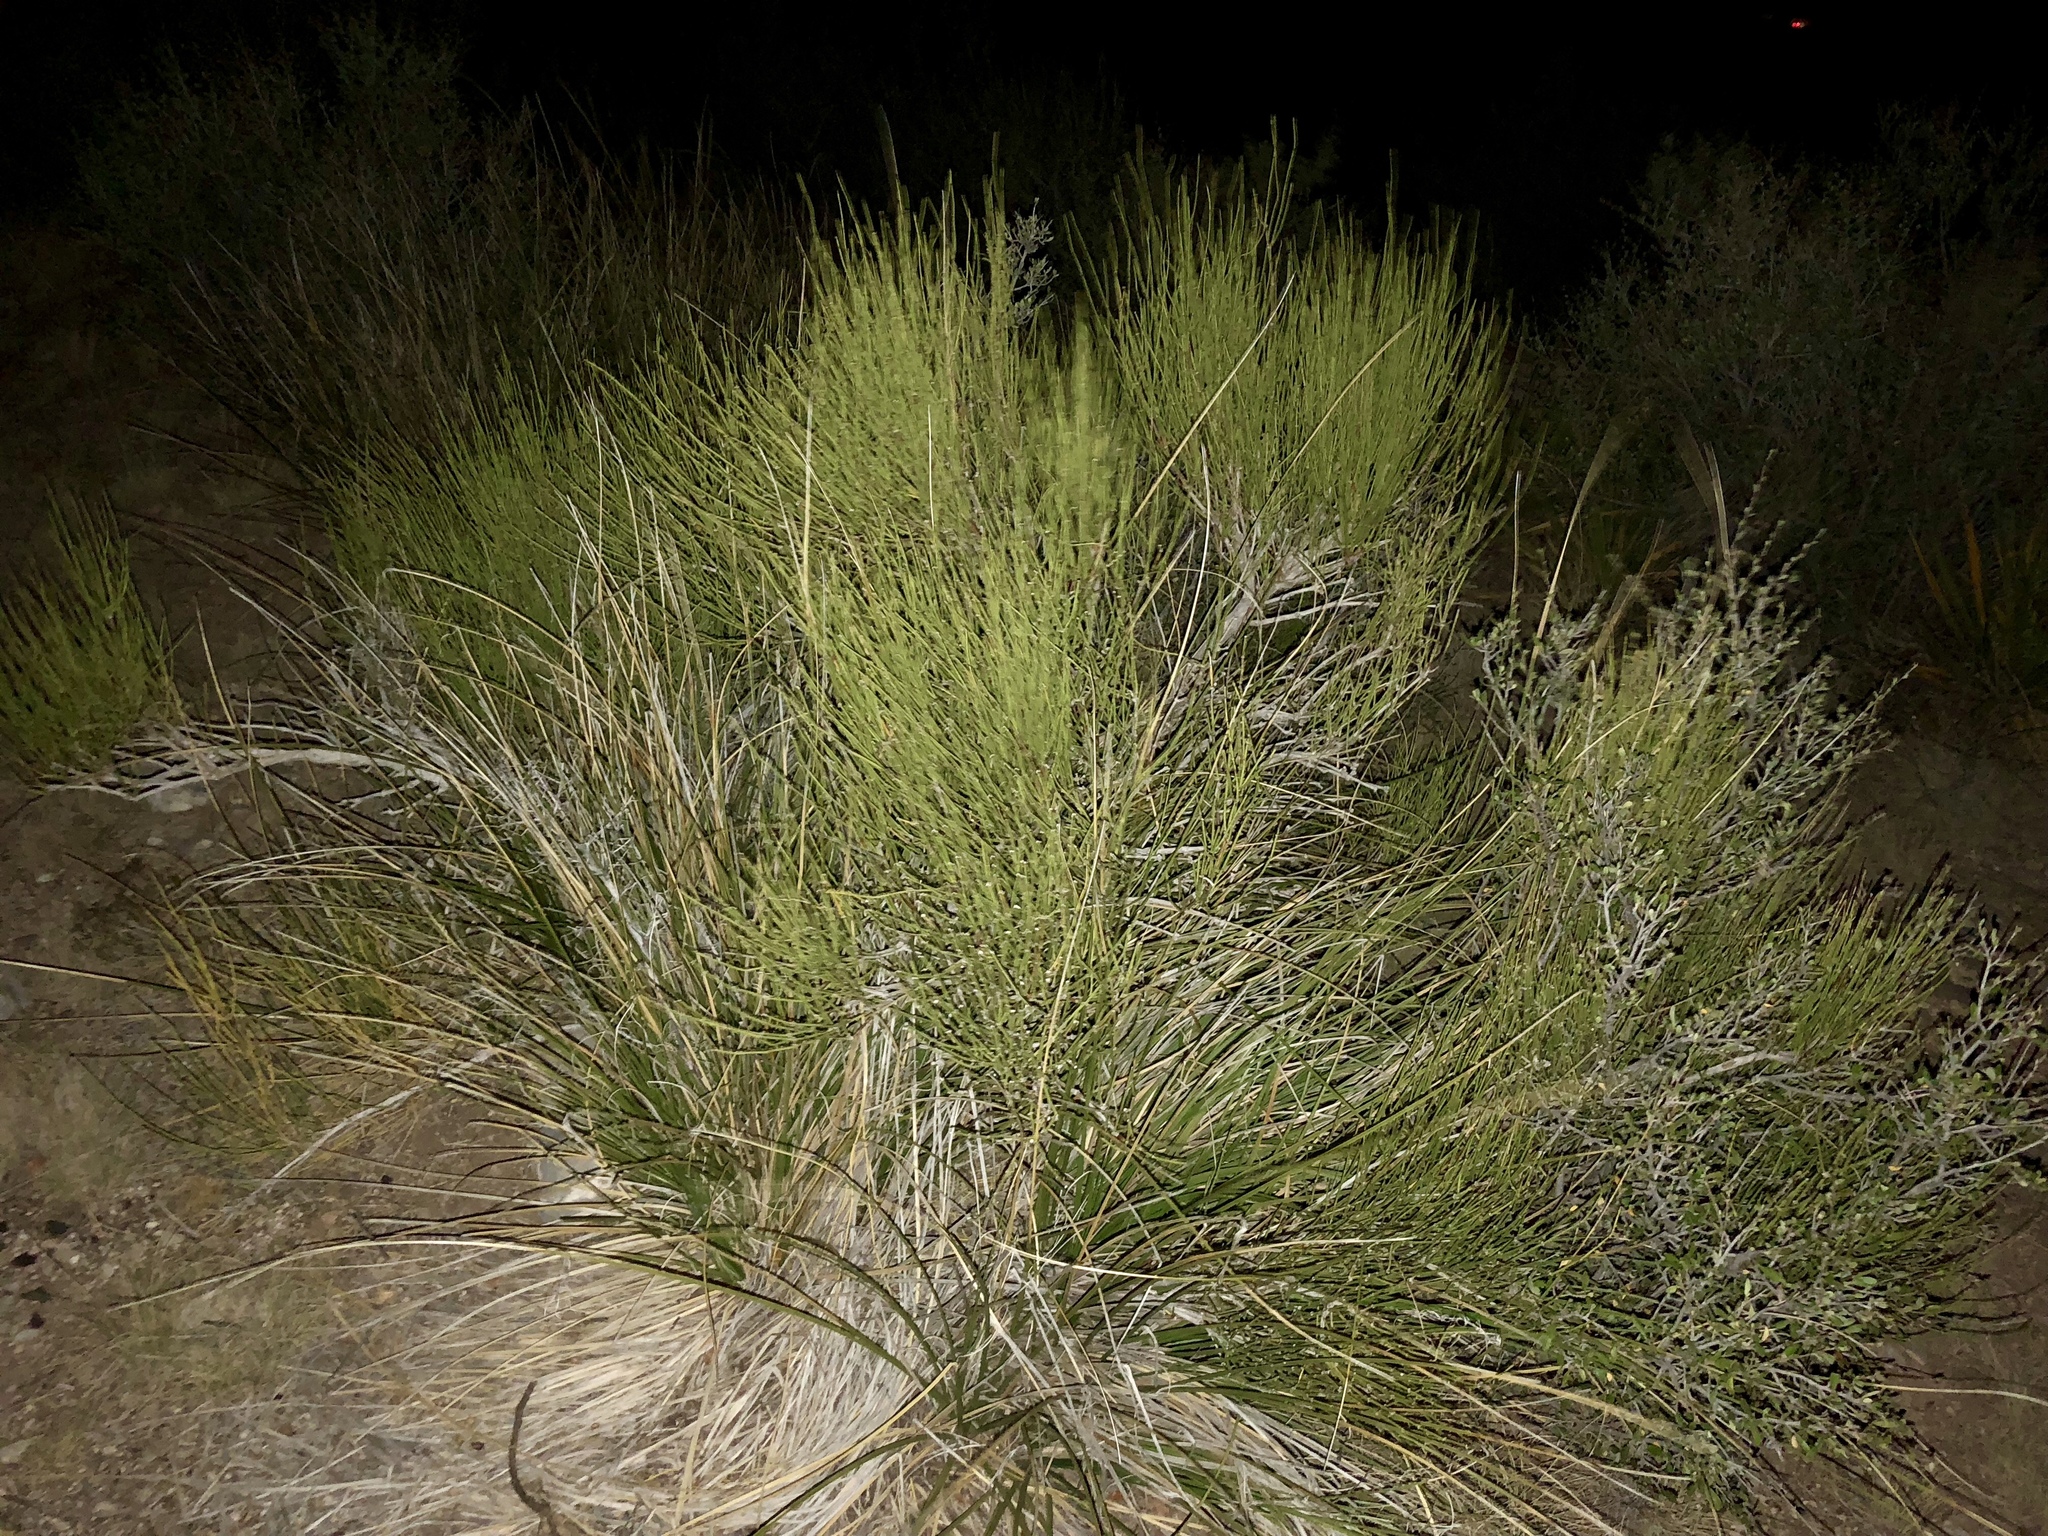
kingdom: Plantae
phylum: Tracheophyta
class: Gnetopsida
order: Ephedrales
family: Ephedraceae
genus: Ephedra
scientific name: Ephedra trifurca
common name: Mexican-tea
